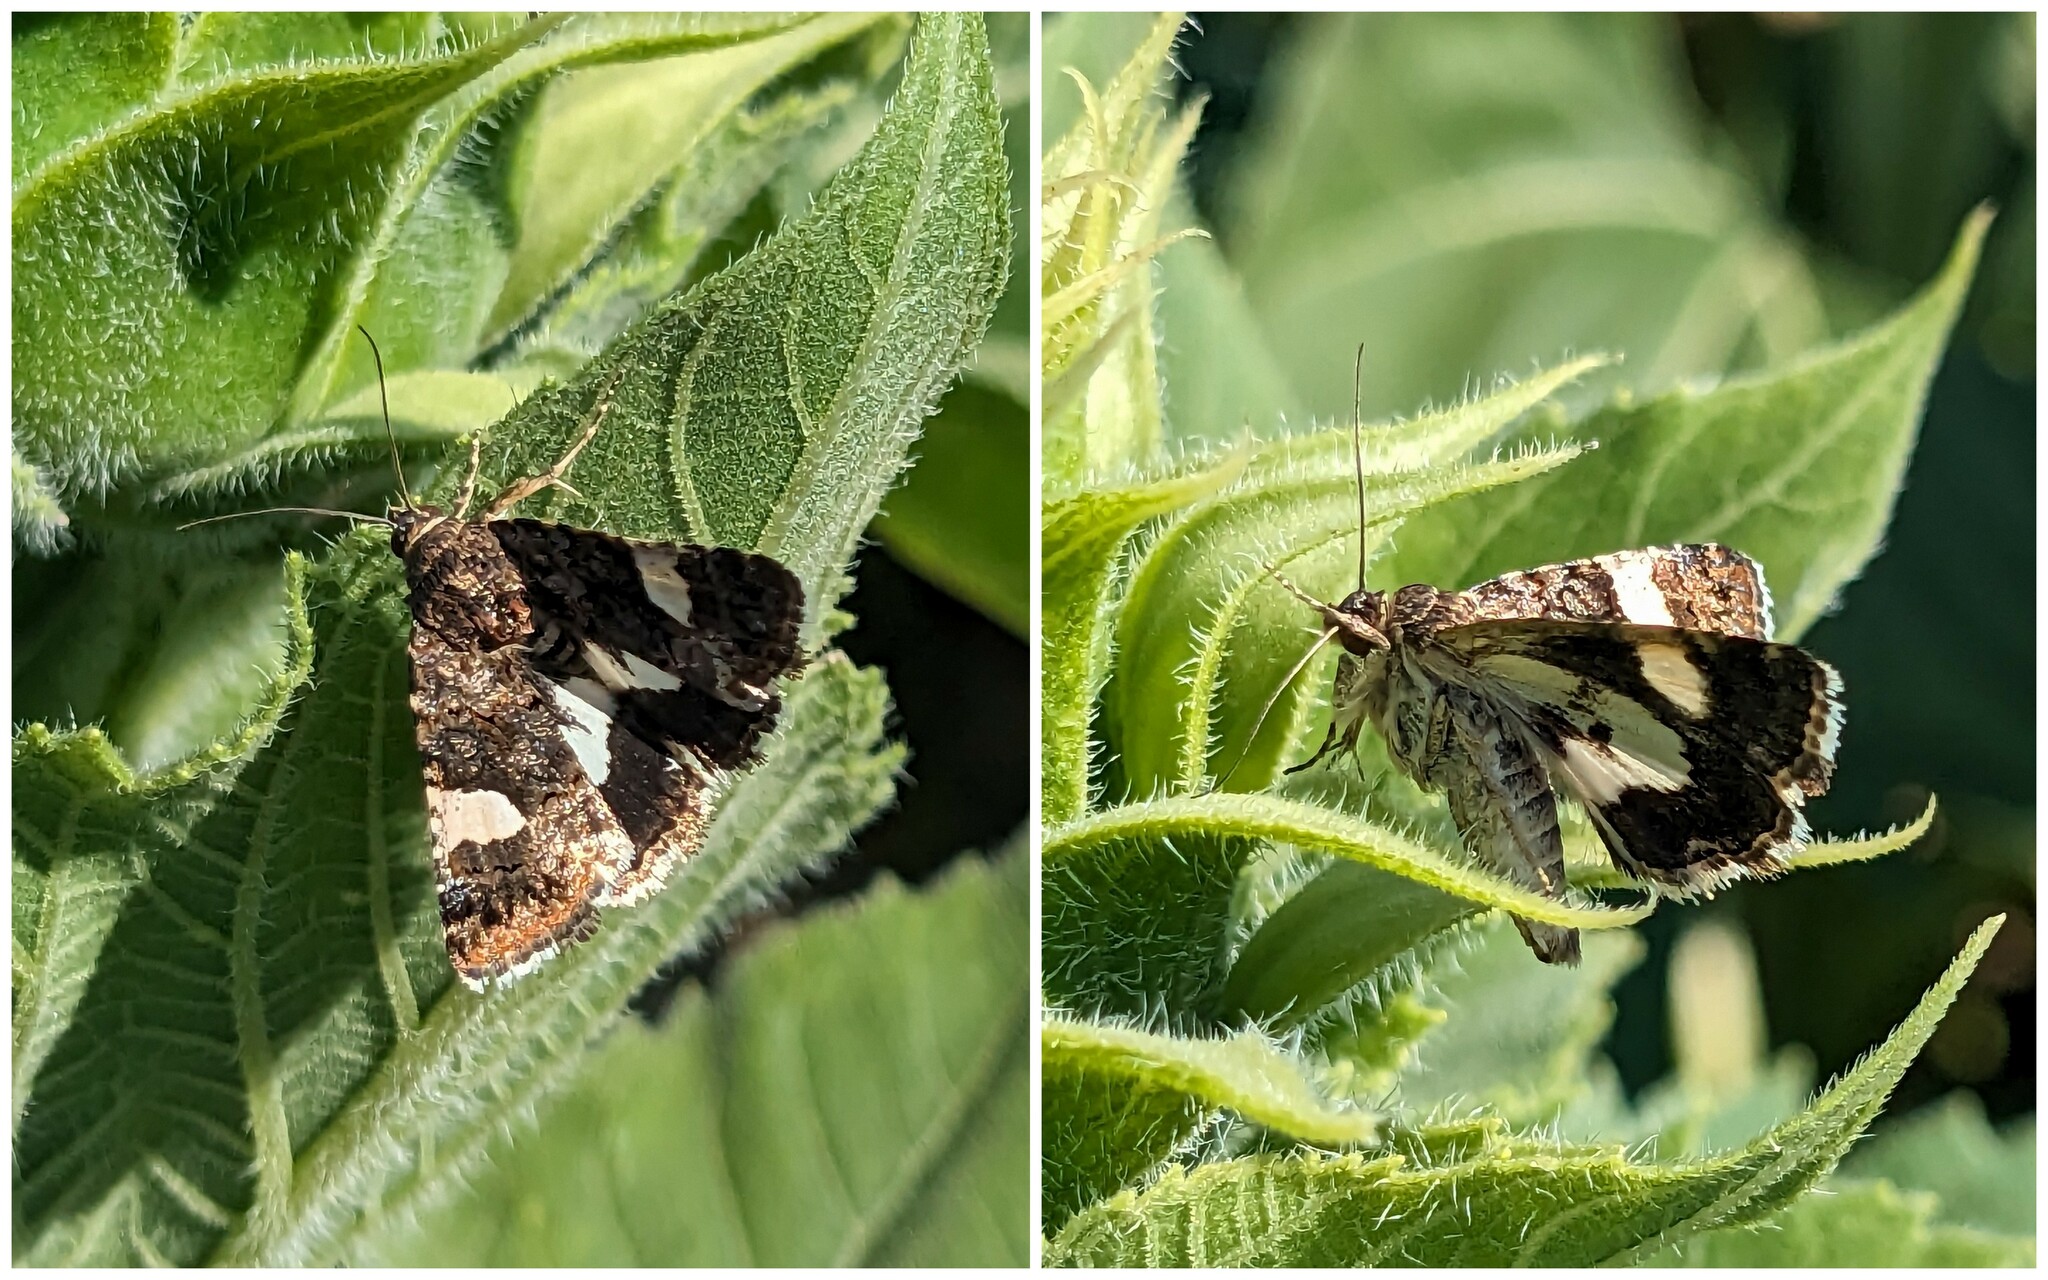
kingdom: Animalia
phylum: Arthropoda
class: Insecta
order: Lepidoptera
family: Erebidae
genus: Tyta
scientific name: Tyta luctuosa
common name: Four-spotted
